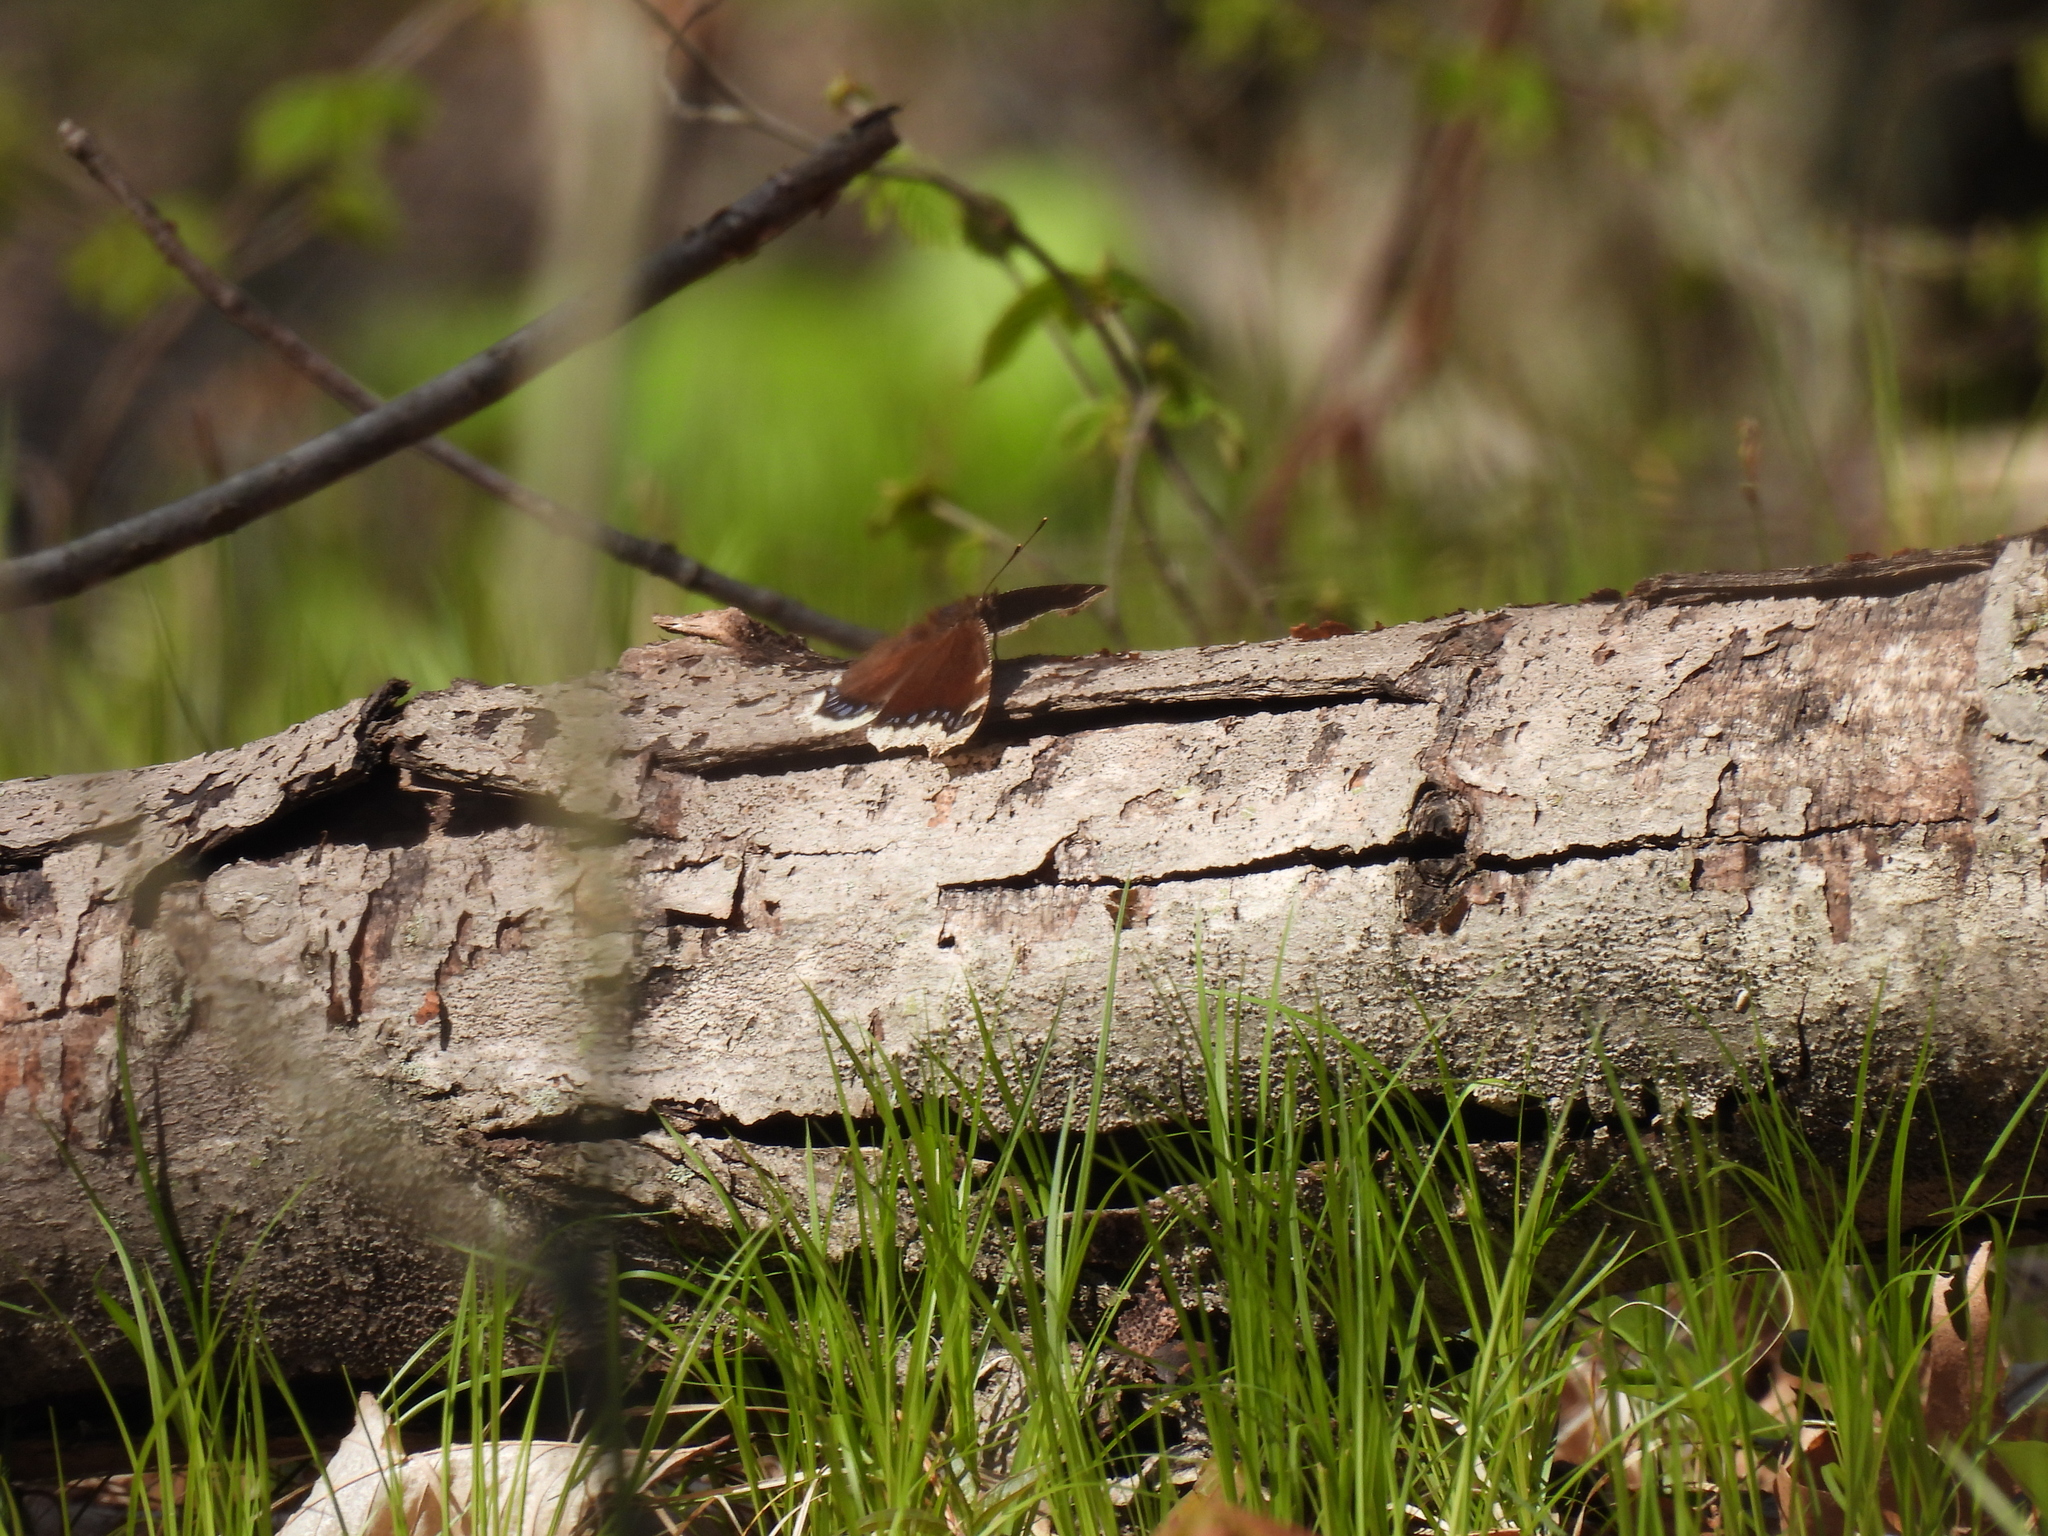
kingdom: Animalia
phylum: Arthropoda
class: Insecta
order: Lepidoptera
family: Nymphalidae
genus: Nymphalis
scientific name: Nymphalis antiopa
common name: Camberwell beauty
